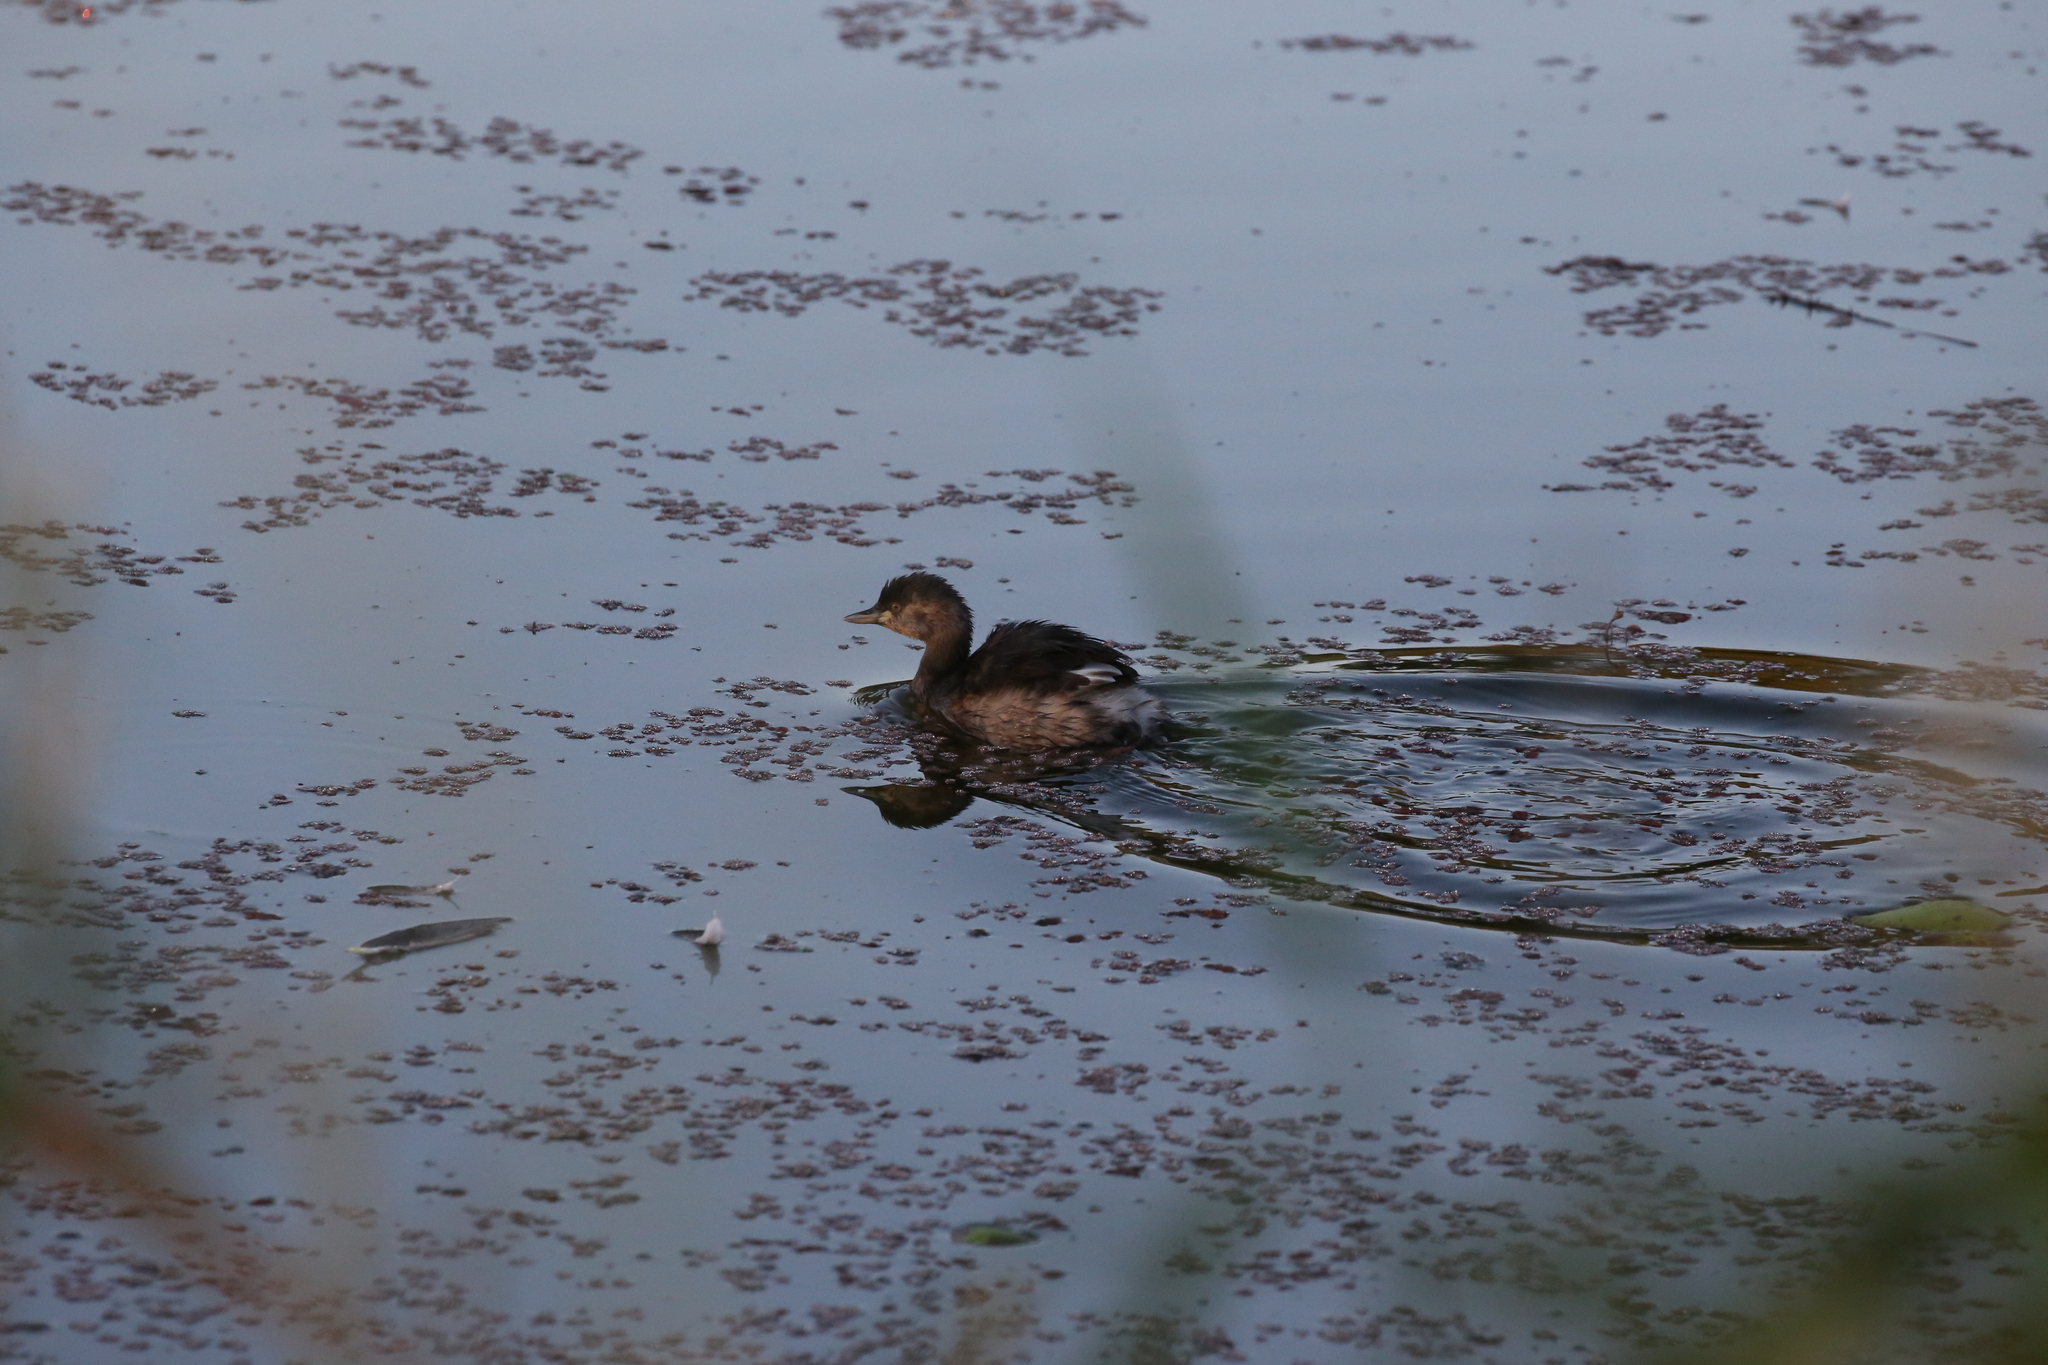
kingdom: Animalia
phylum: Chordata
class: Aves
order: Podicipediformes
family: Podicipedidae
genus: Tachybaptus
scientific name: Tachybaptus novaehollandiae
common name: Australasian grebe
